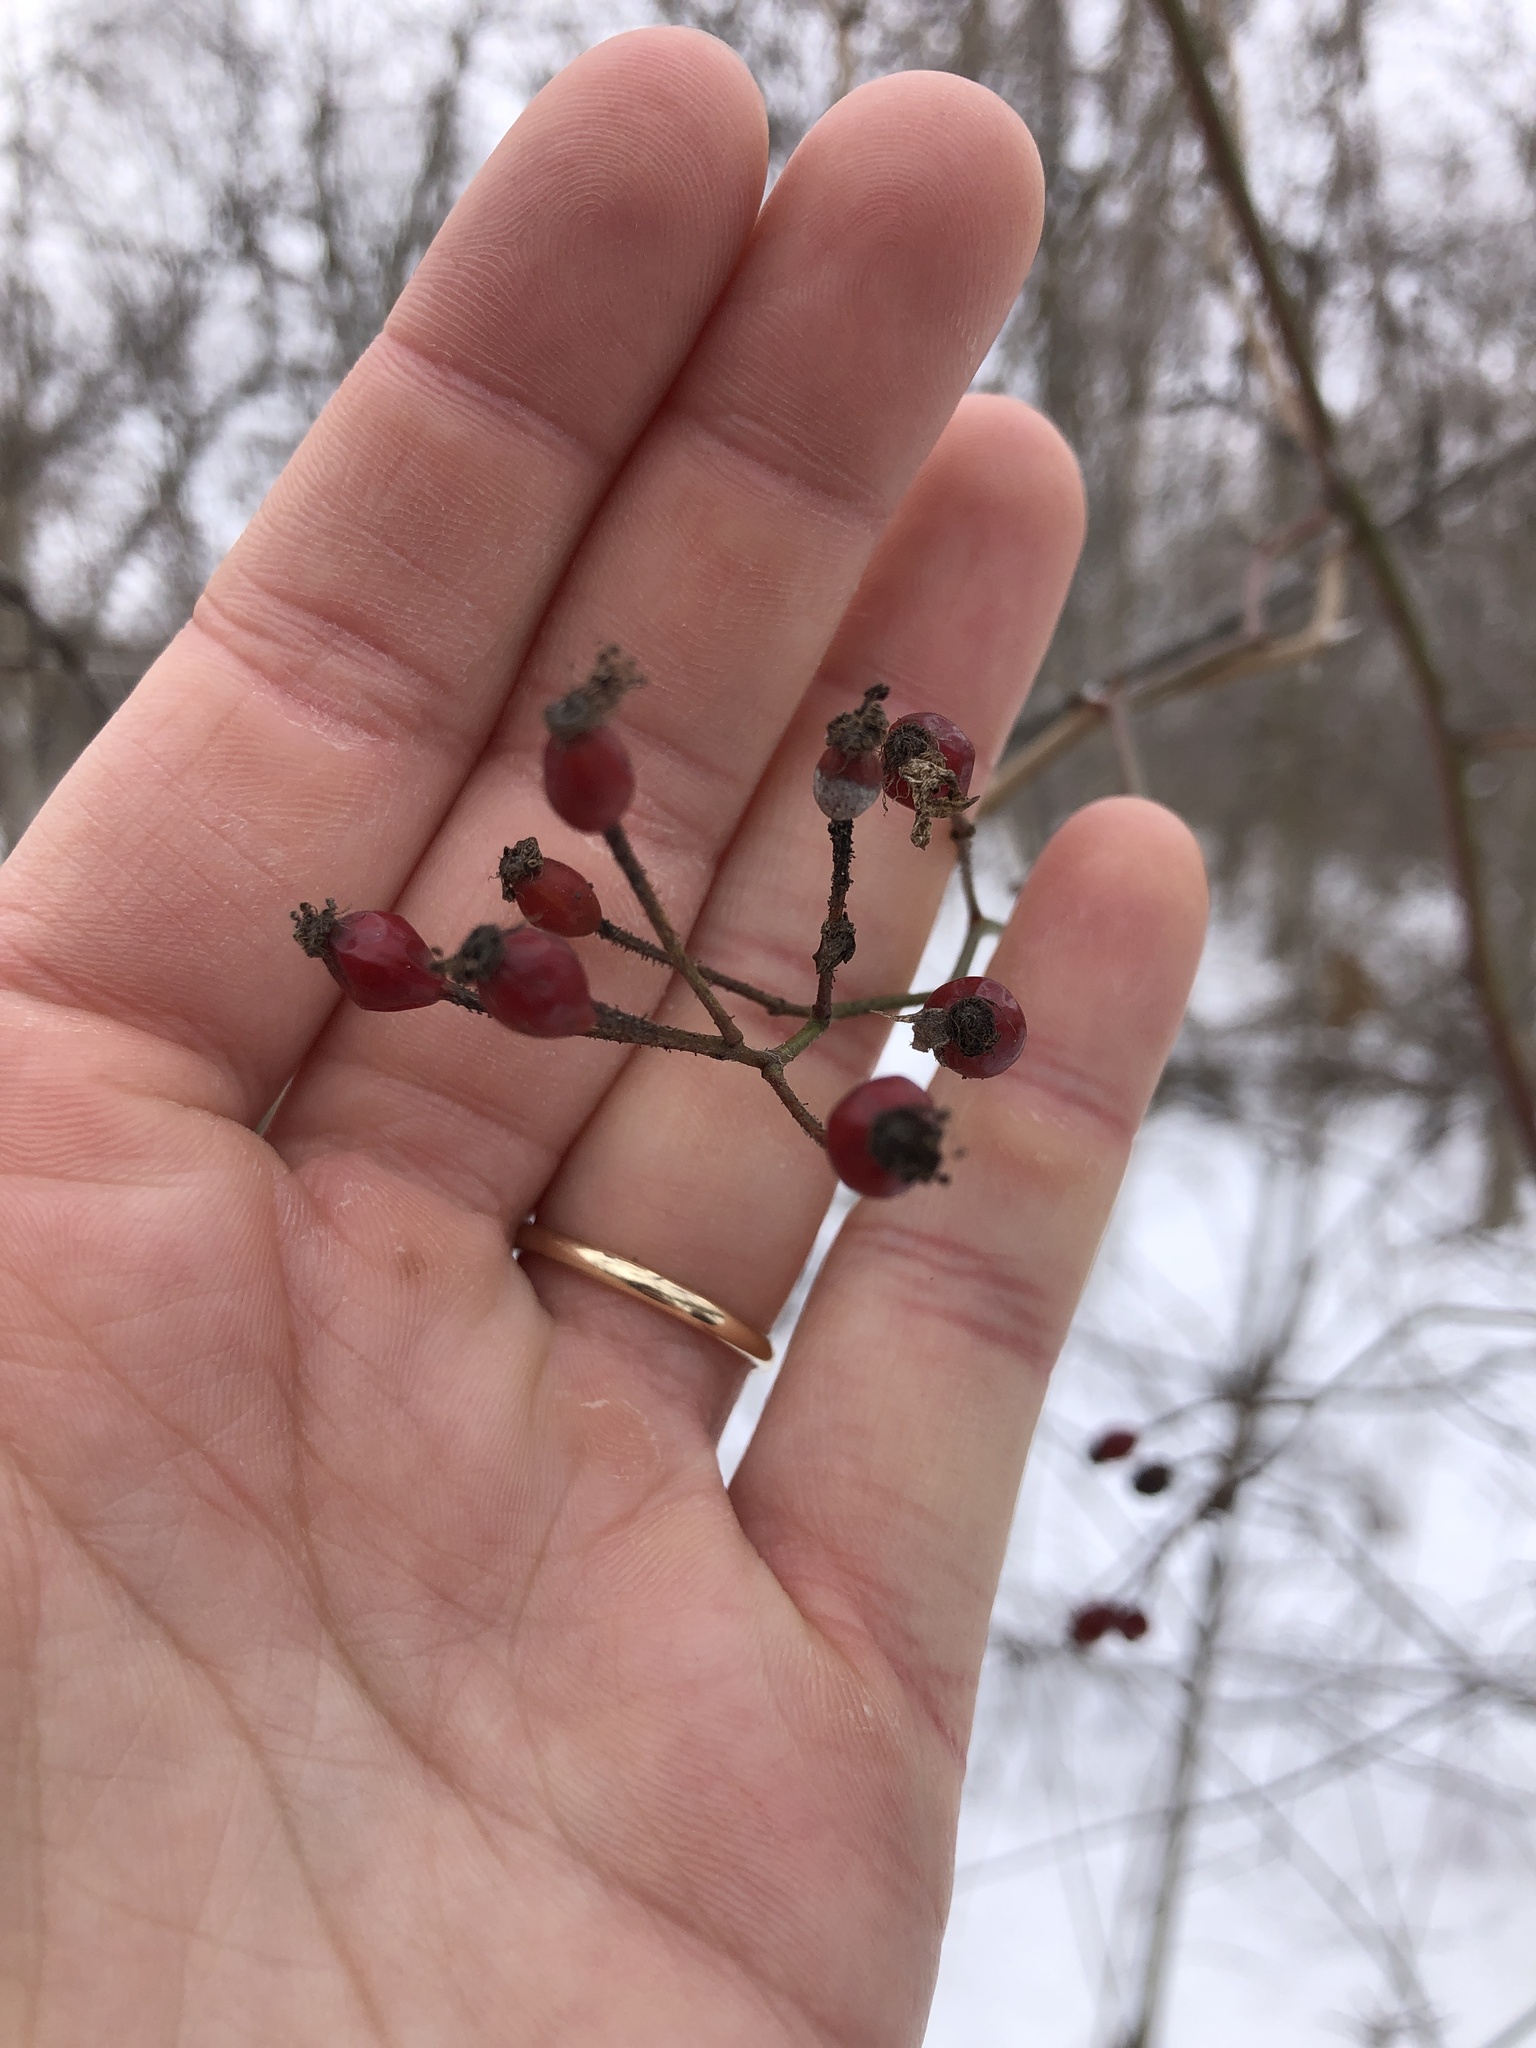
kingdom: Plantae
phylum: Tracheophyta
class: Magnoliopsida
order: Rosales
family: Rosaceae
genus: Rosa
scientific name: Rosa multiflora
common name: Multiflora rose
